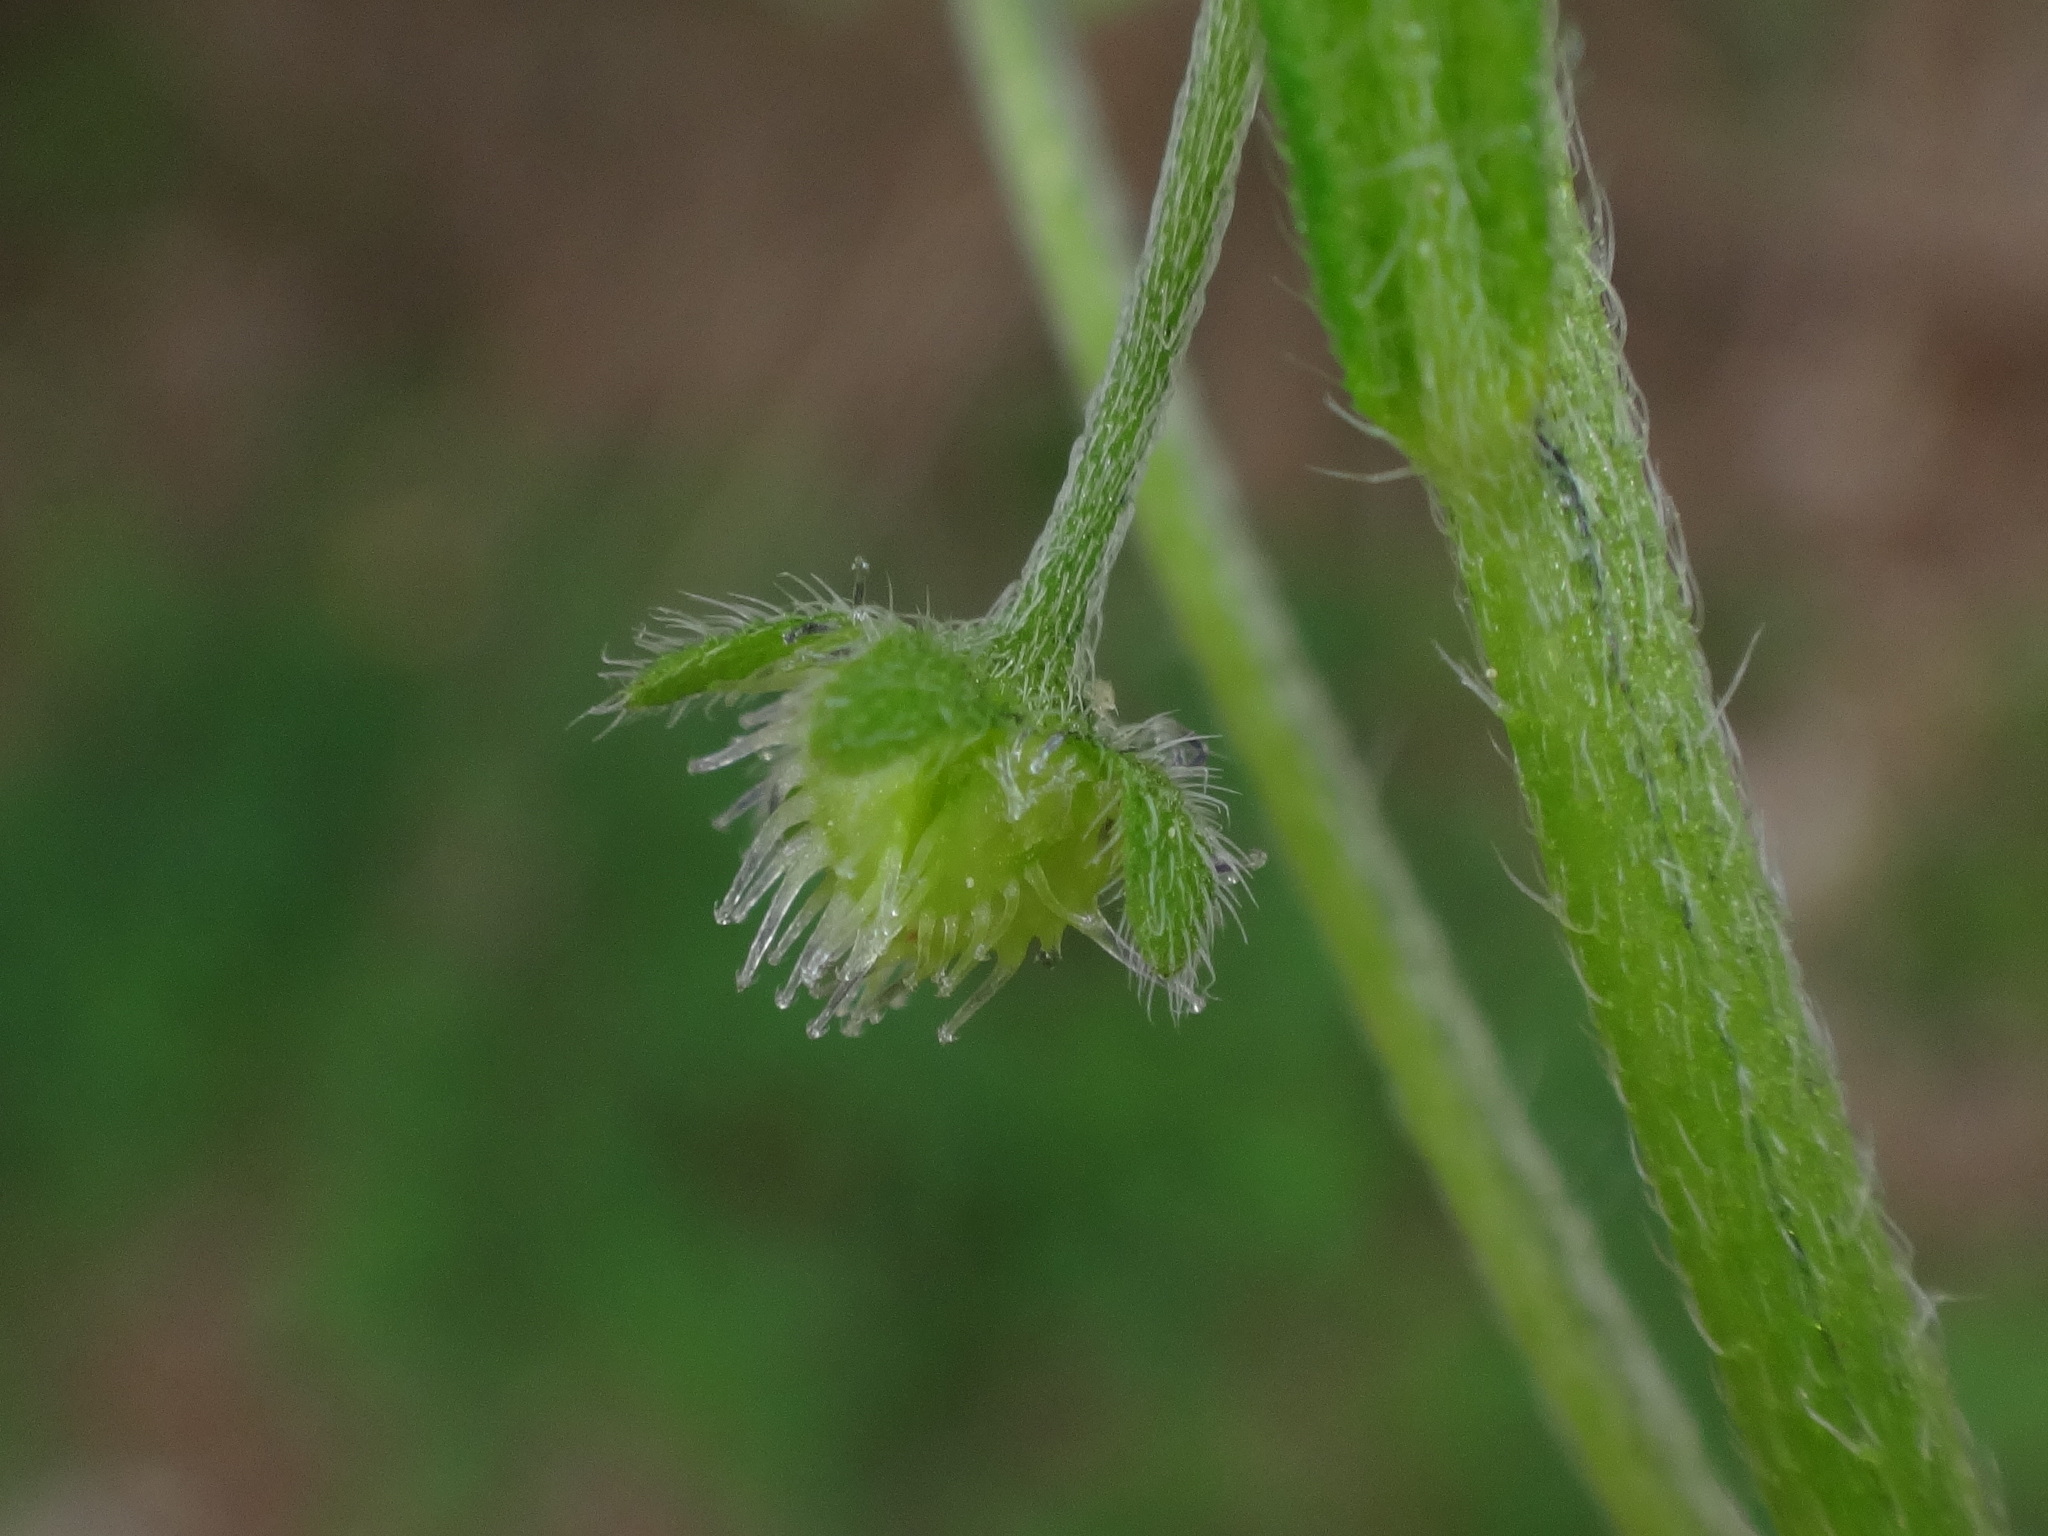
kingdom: Plantae
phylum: Tracheophyta
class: Magnoliopsida
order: Boraginales
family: Boraginaceae
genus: Hackelia
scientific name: Hackelia deflexa
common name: Nodding stickseed
